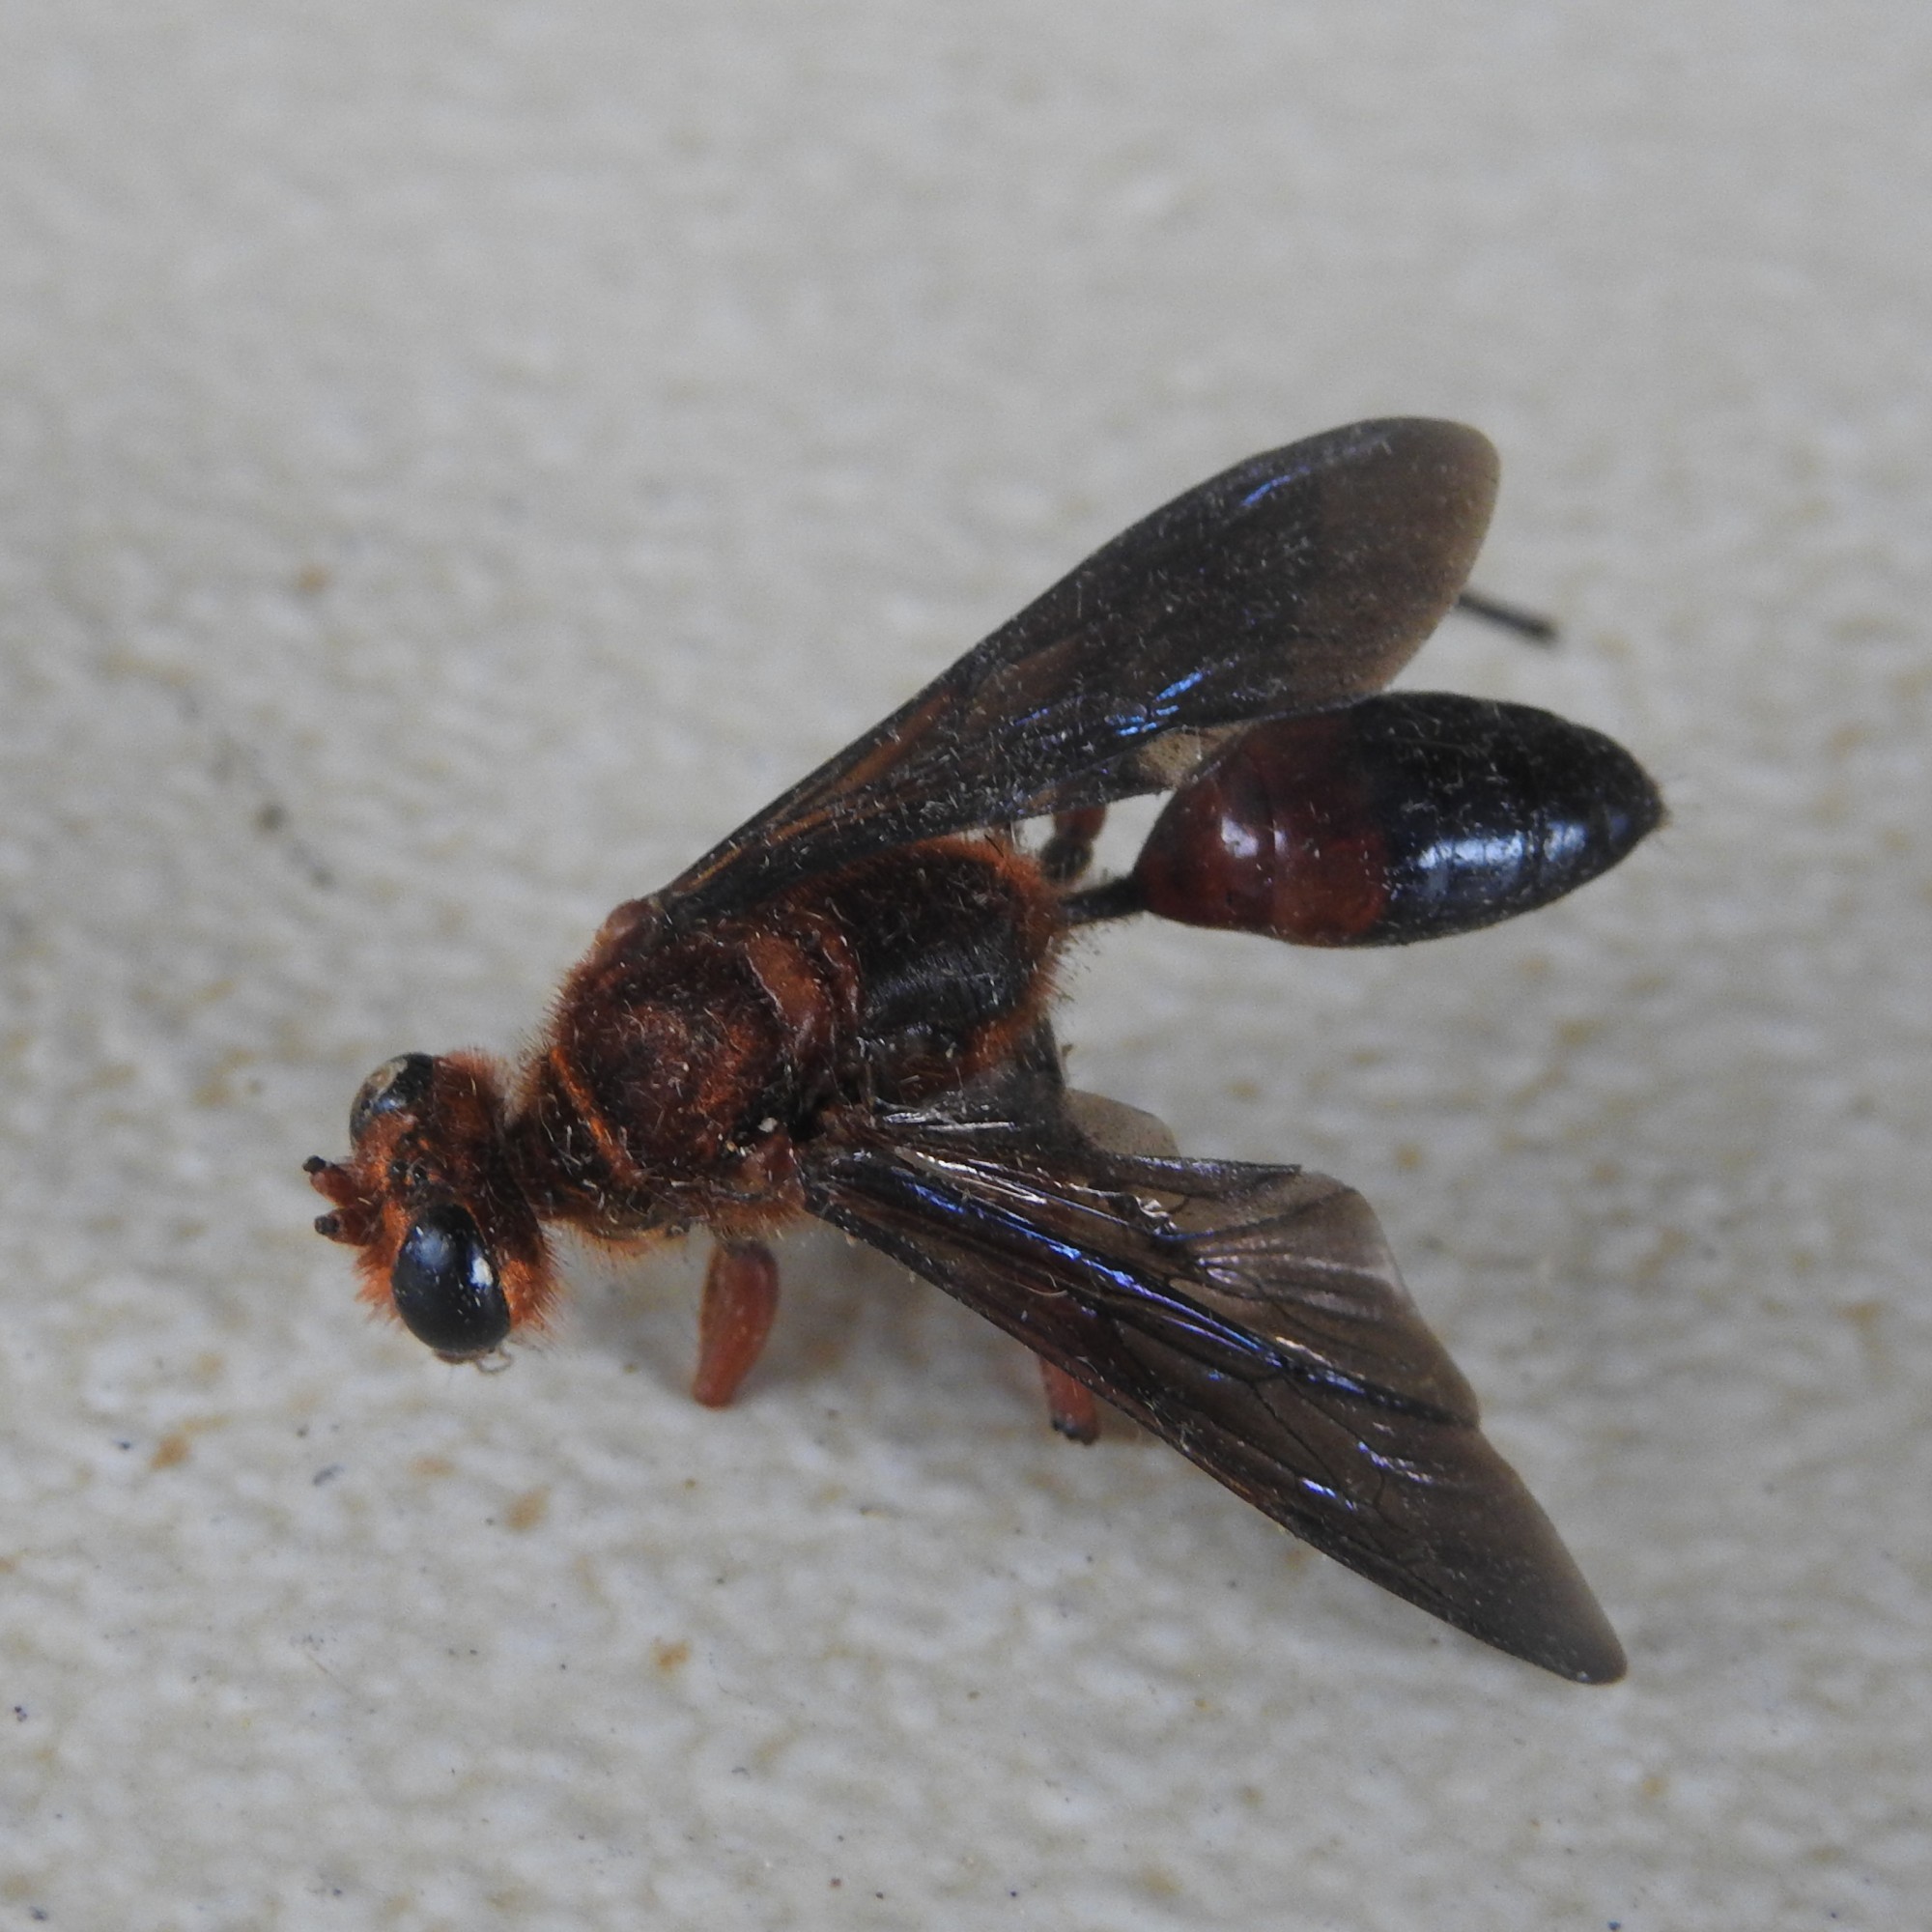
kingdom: Animalia
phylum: Arthropoda
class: Insecta
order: Hymenoptera
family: Sphecidae
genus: Sphex
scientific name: Sphex sericeus
